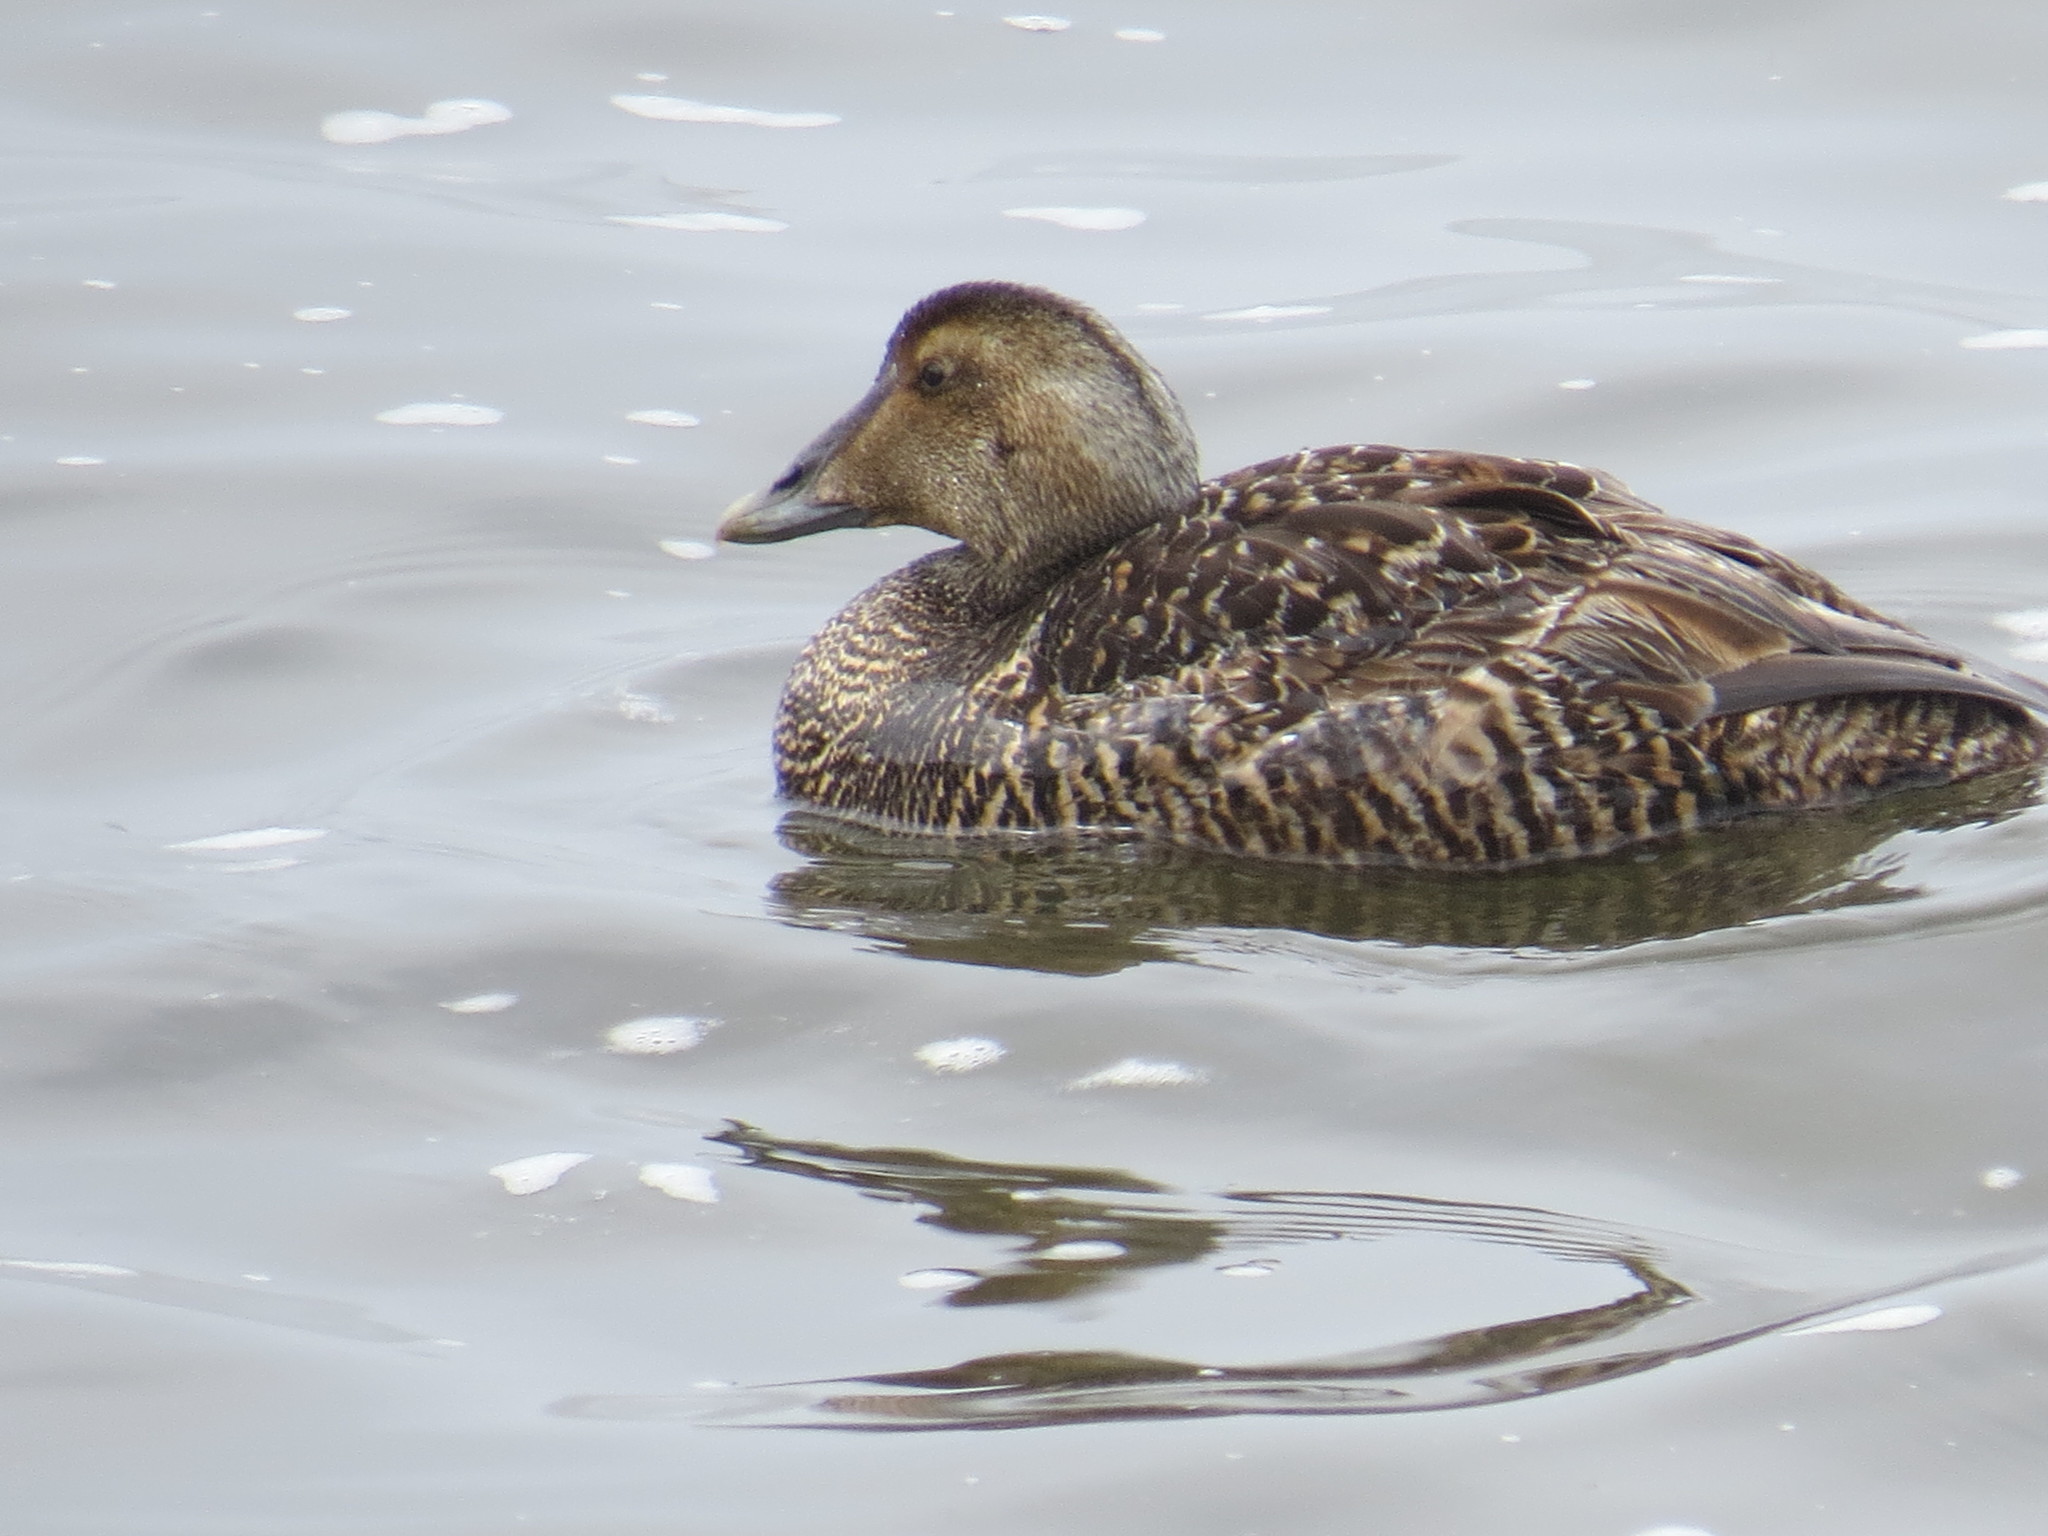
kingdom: Animalia
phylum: Chordata
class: Aves
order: Anseriformes
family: Anatidae
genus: Somateria
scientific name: Somateria mollissima
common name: Common eider
